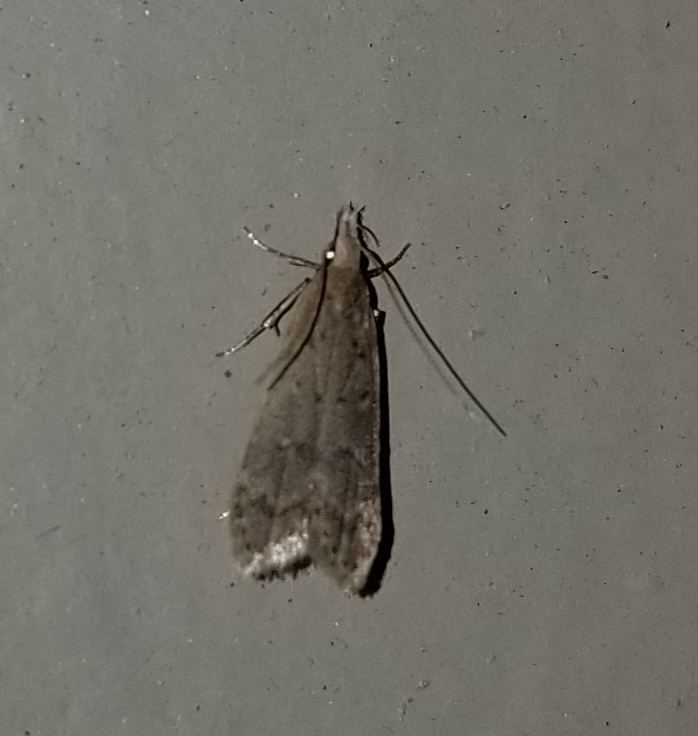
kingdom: Animalia
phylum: Arthropoda
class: Insecta
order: Lepidoptera
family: Gelechiidae
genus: Dichomeris
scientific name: Dichomeris punctidiscellus
